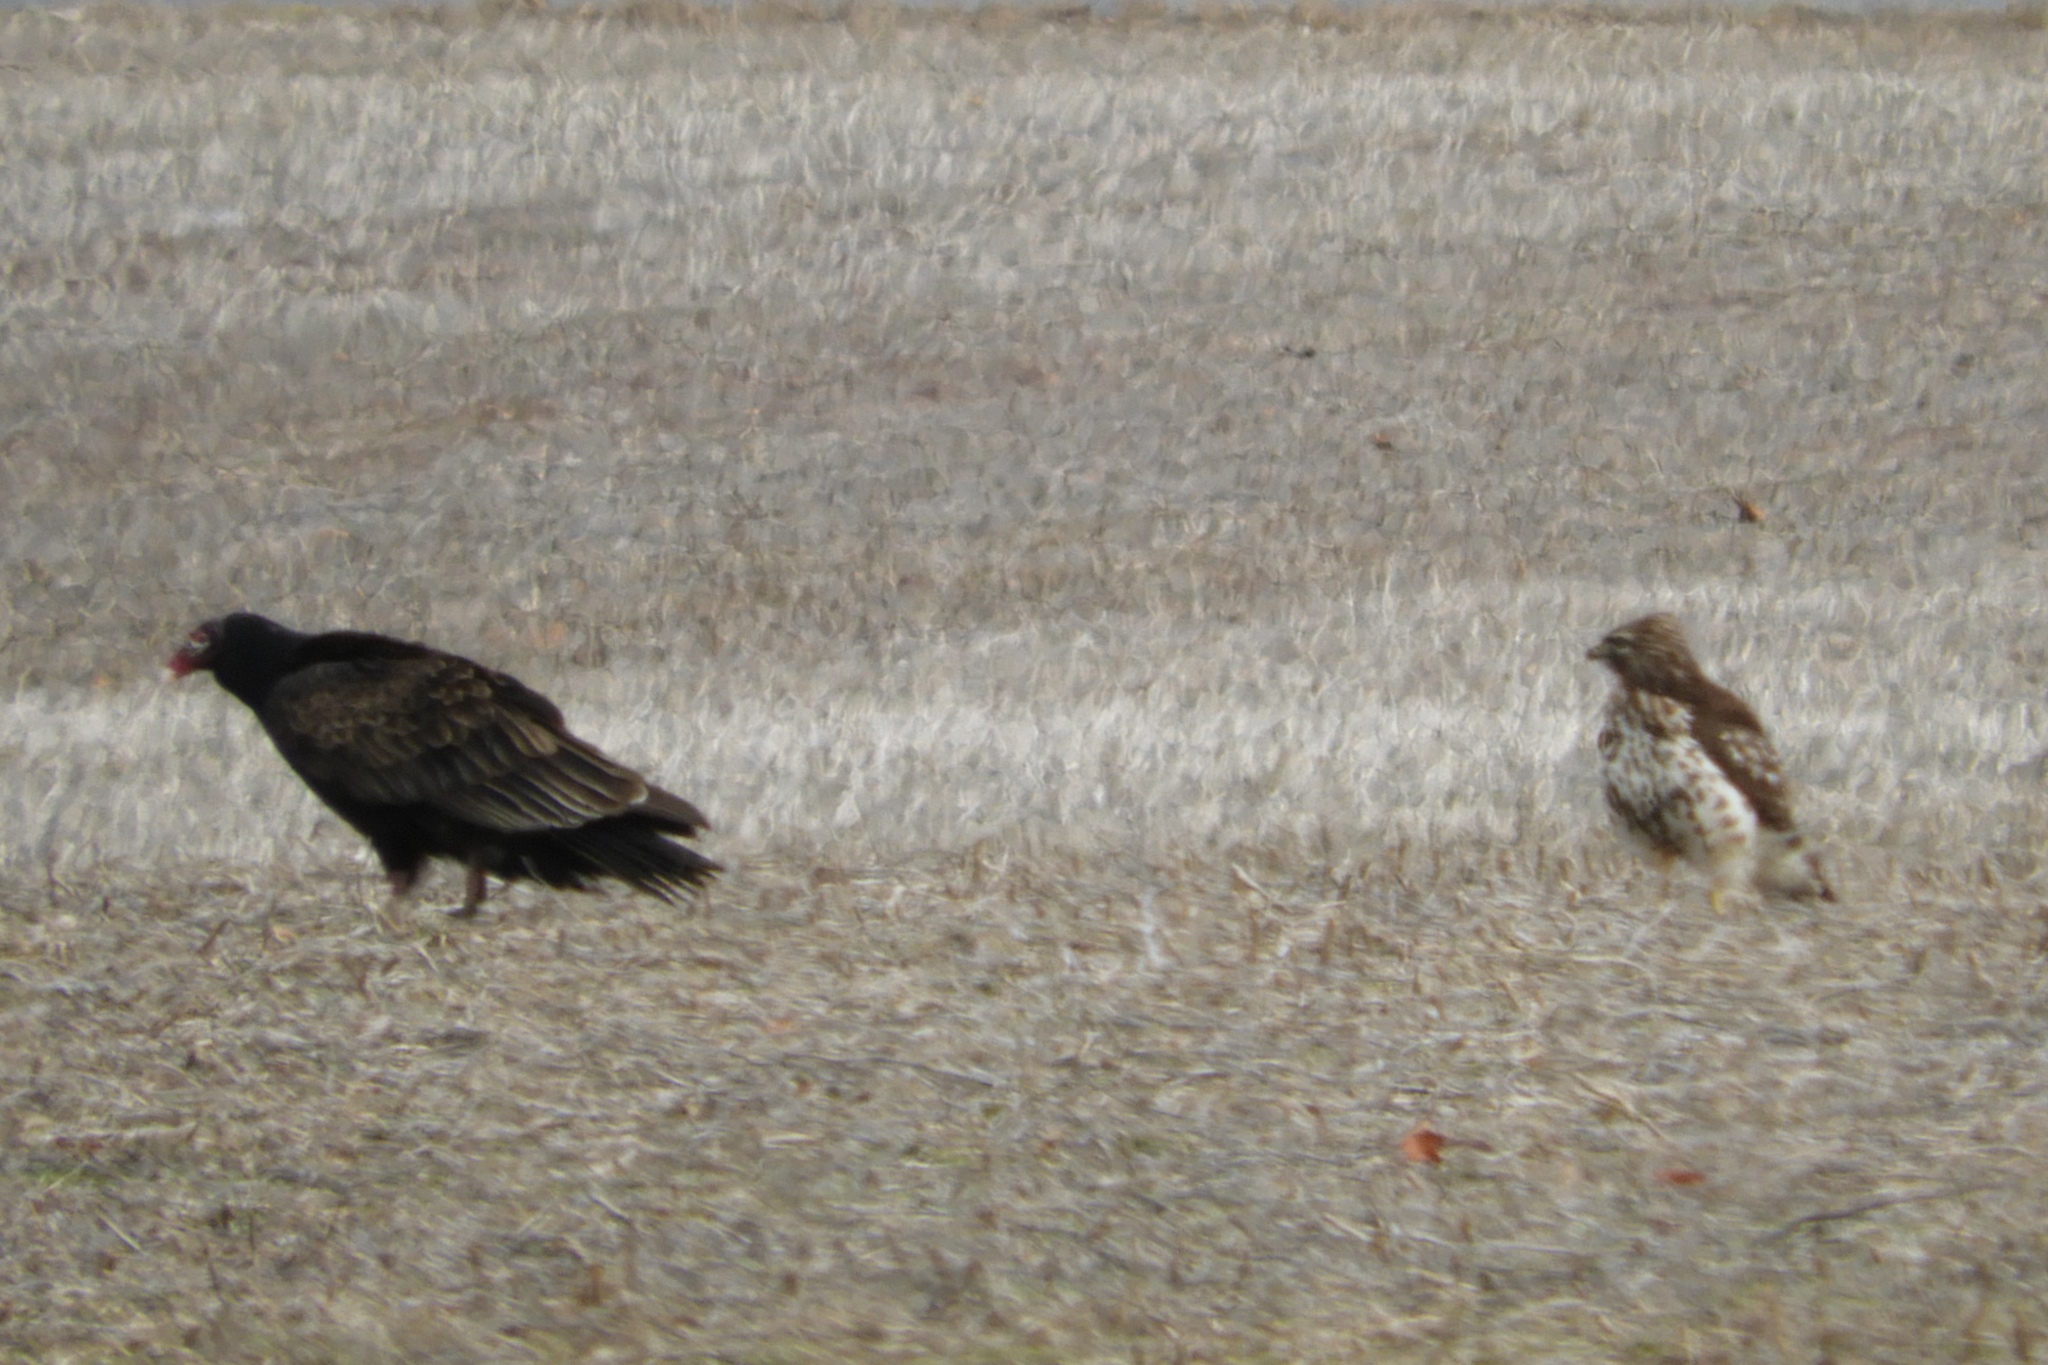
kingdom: Animalia
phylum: Chordata
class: Aves
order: Accipitriformes
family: Cathartidae
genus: Cathartes
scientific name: Cathartes aura
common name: Turkey vulture
